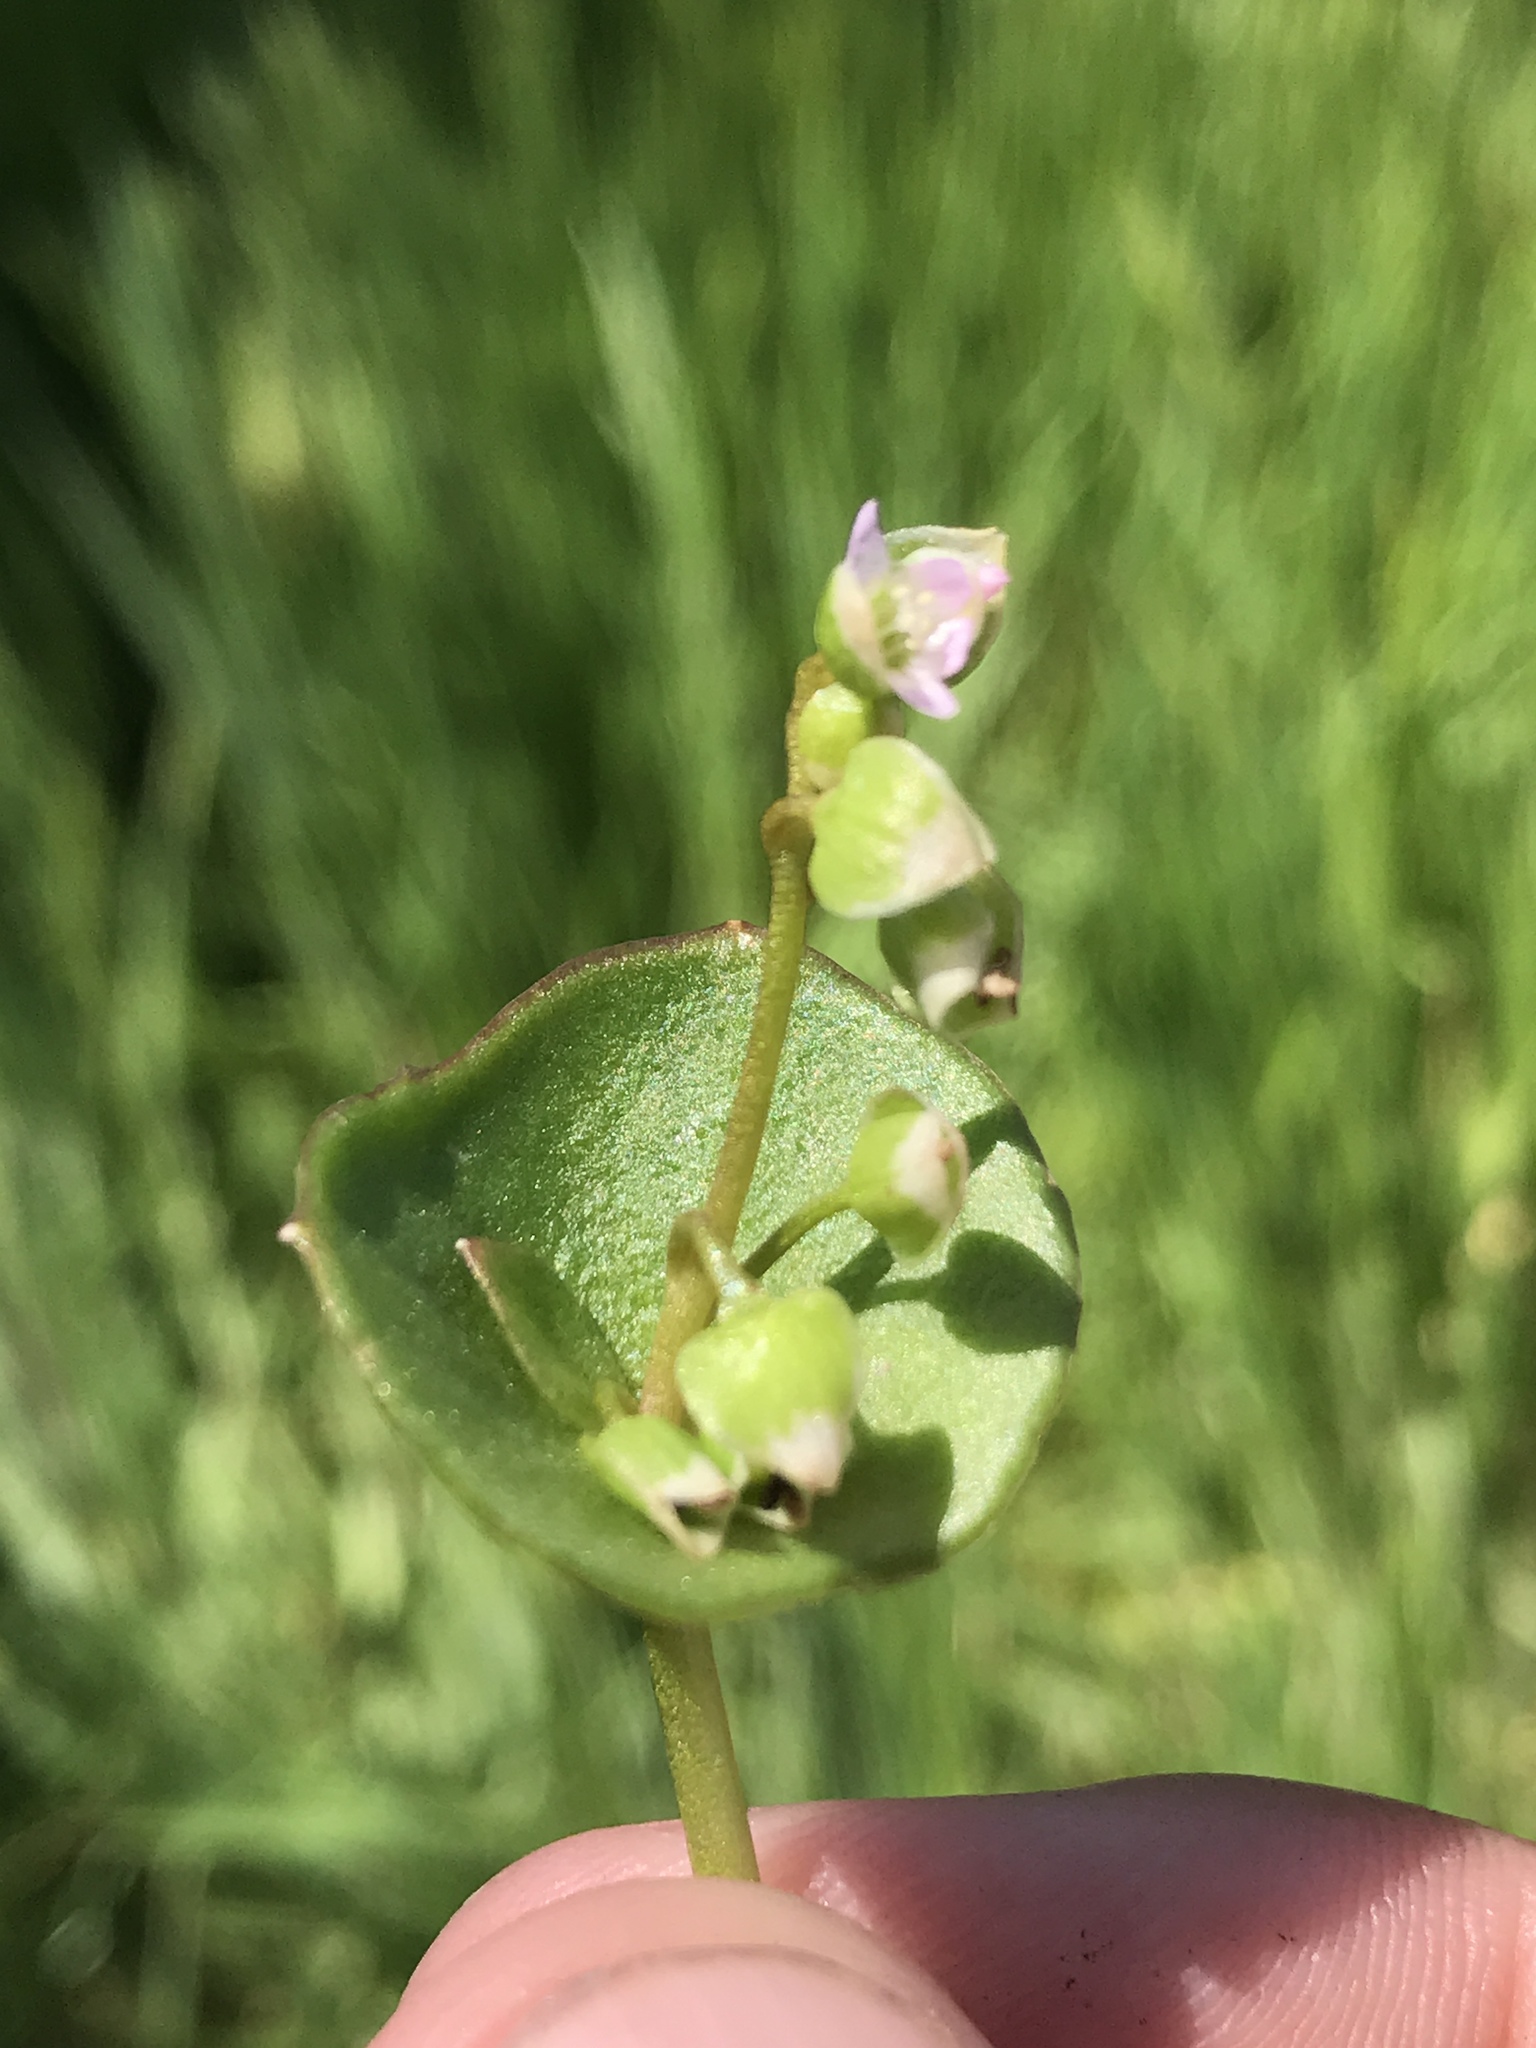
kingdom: Plantae
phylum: Tracheophyta
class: Magnoliopsida
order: Caryophyllales
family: Montiaceae
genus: Claytonia
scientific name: Claytonia perfoliata
